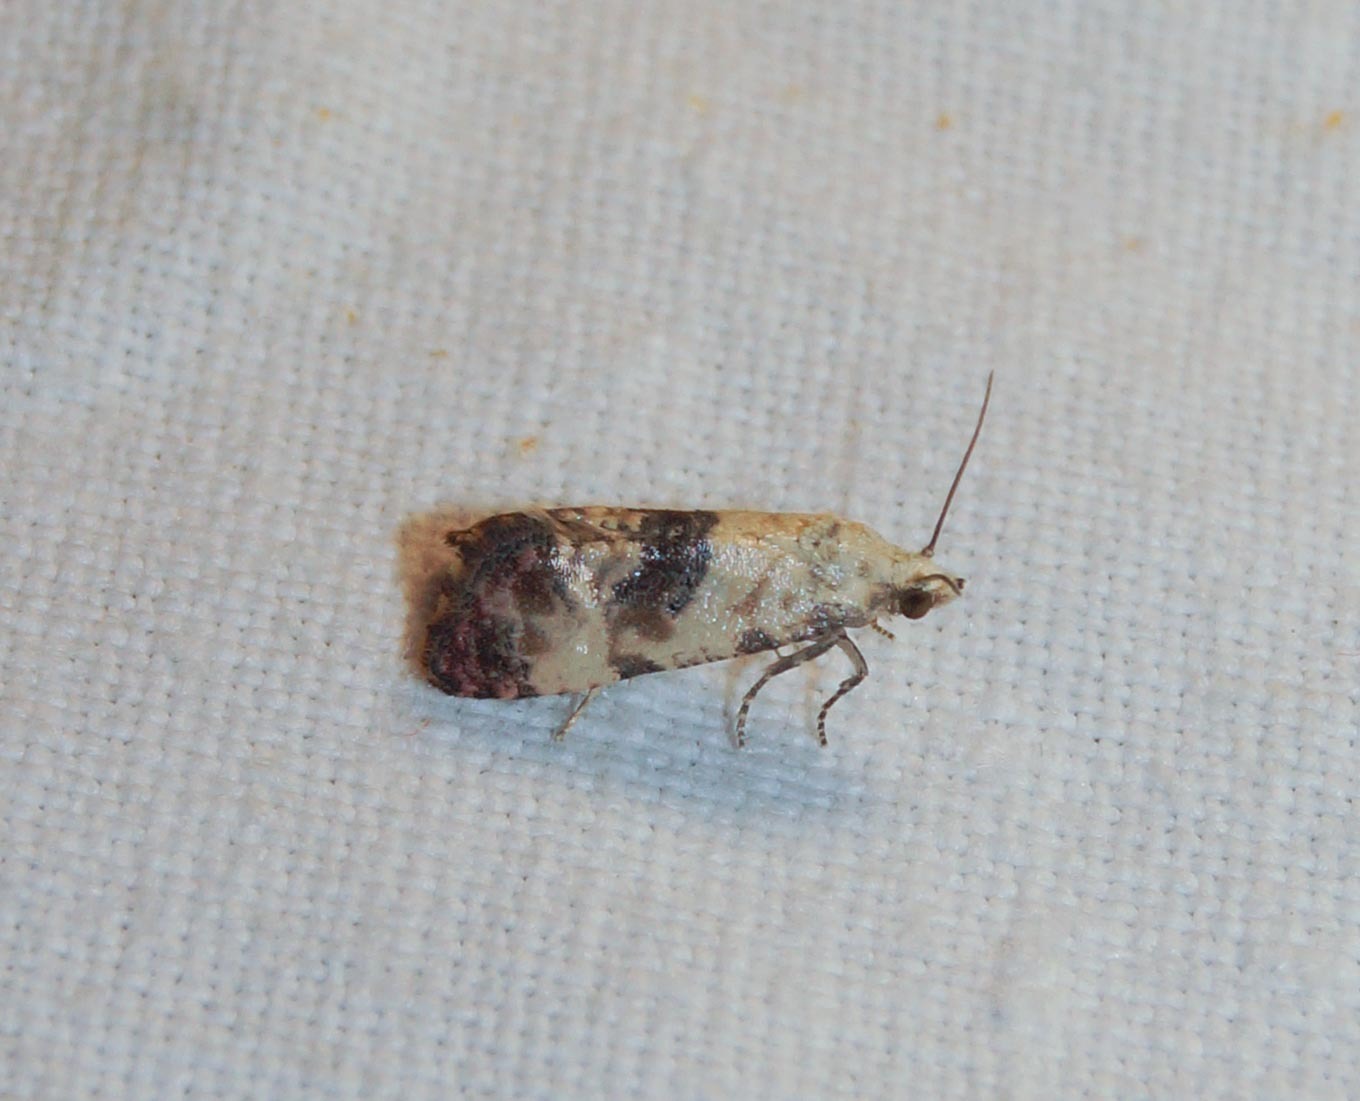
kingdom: Animalia
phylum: Arthropoda
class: Insecta
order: Lepidoptera
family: Tortricidae
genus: Cochylis
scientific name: Cochylis Pontoturania posterana
